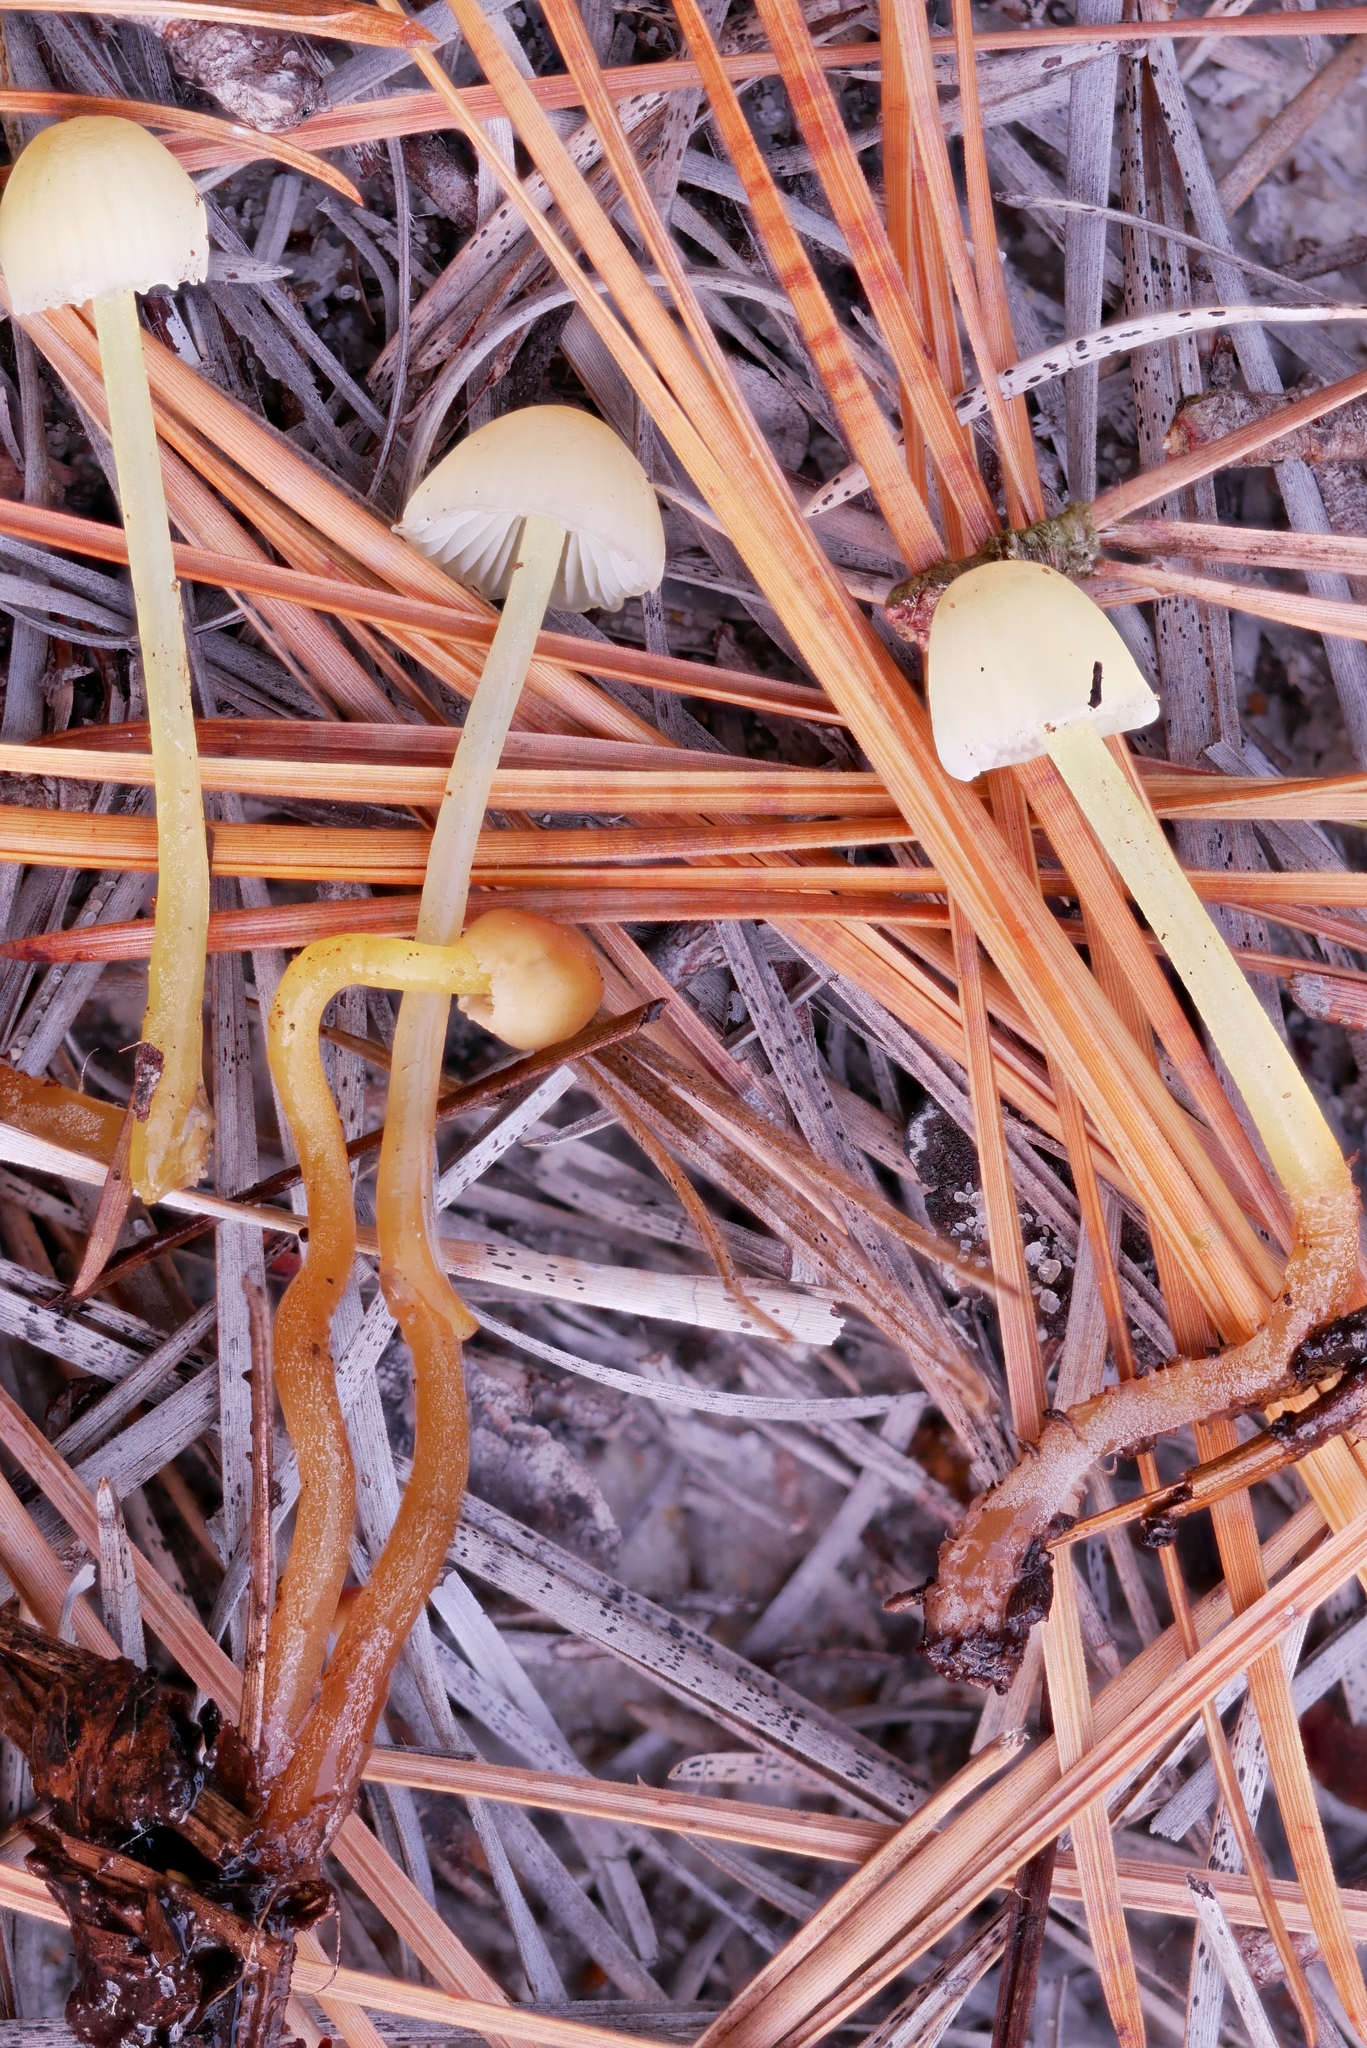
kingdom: Fungi
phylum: Basidiomycota
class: Agaricomycetes
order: Agaricales
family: Mycenaceae
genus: Mycena
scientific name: Mycena epipterygia
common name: Yellowleg bonnet
